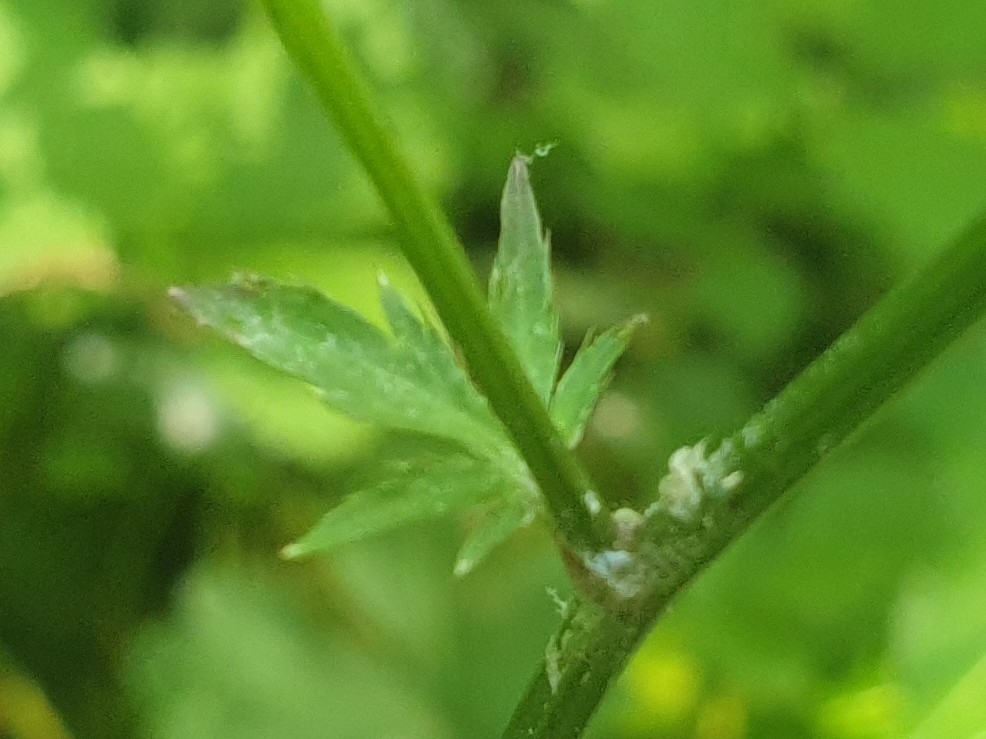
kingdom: Plantae
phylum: Tracheophyta
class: Magnoliopsida
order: Apiales
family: Apiaceae
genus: Sanicula
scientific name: Sanicula europaea
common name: Sanicle
